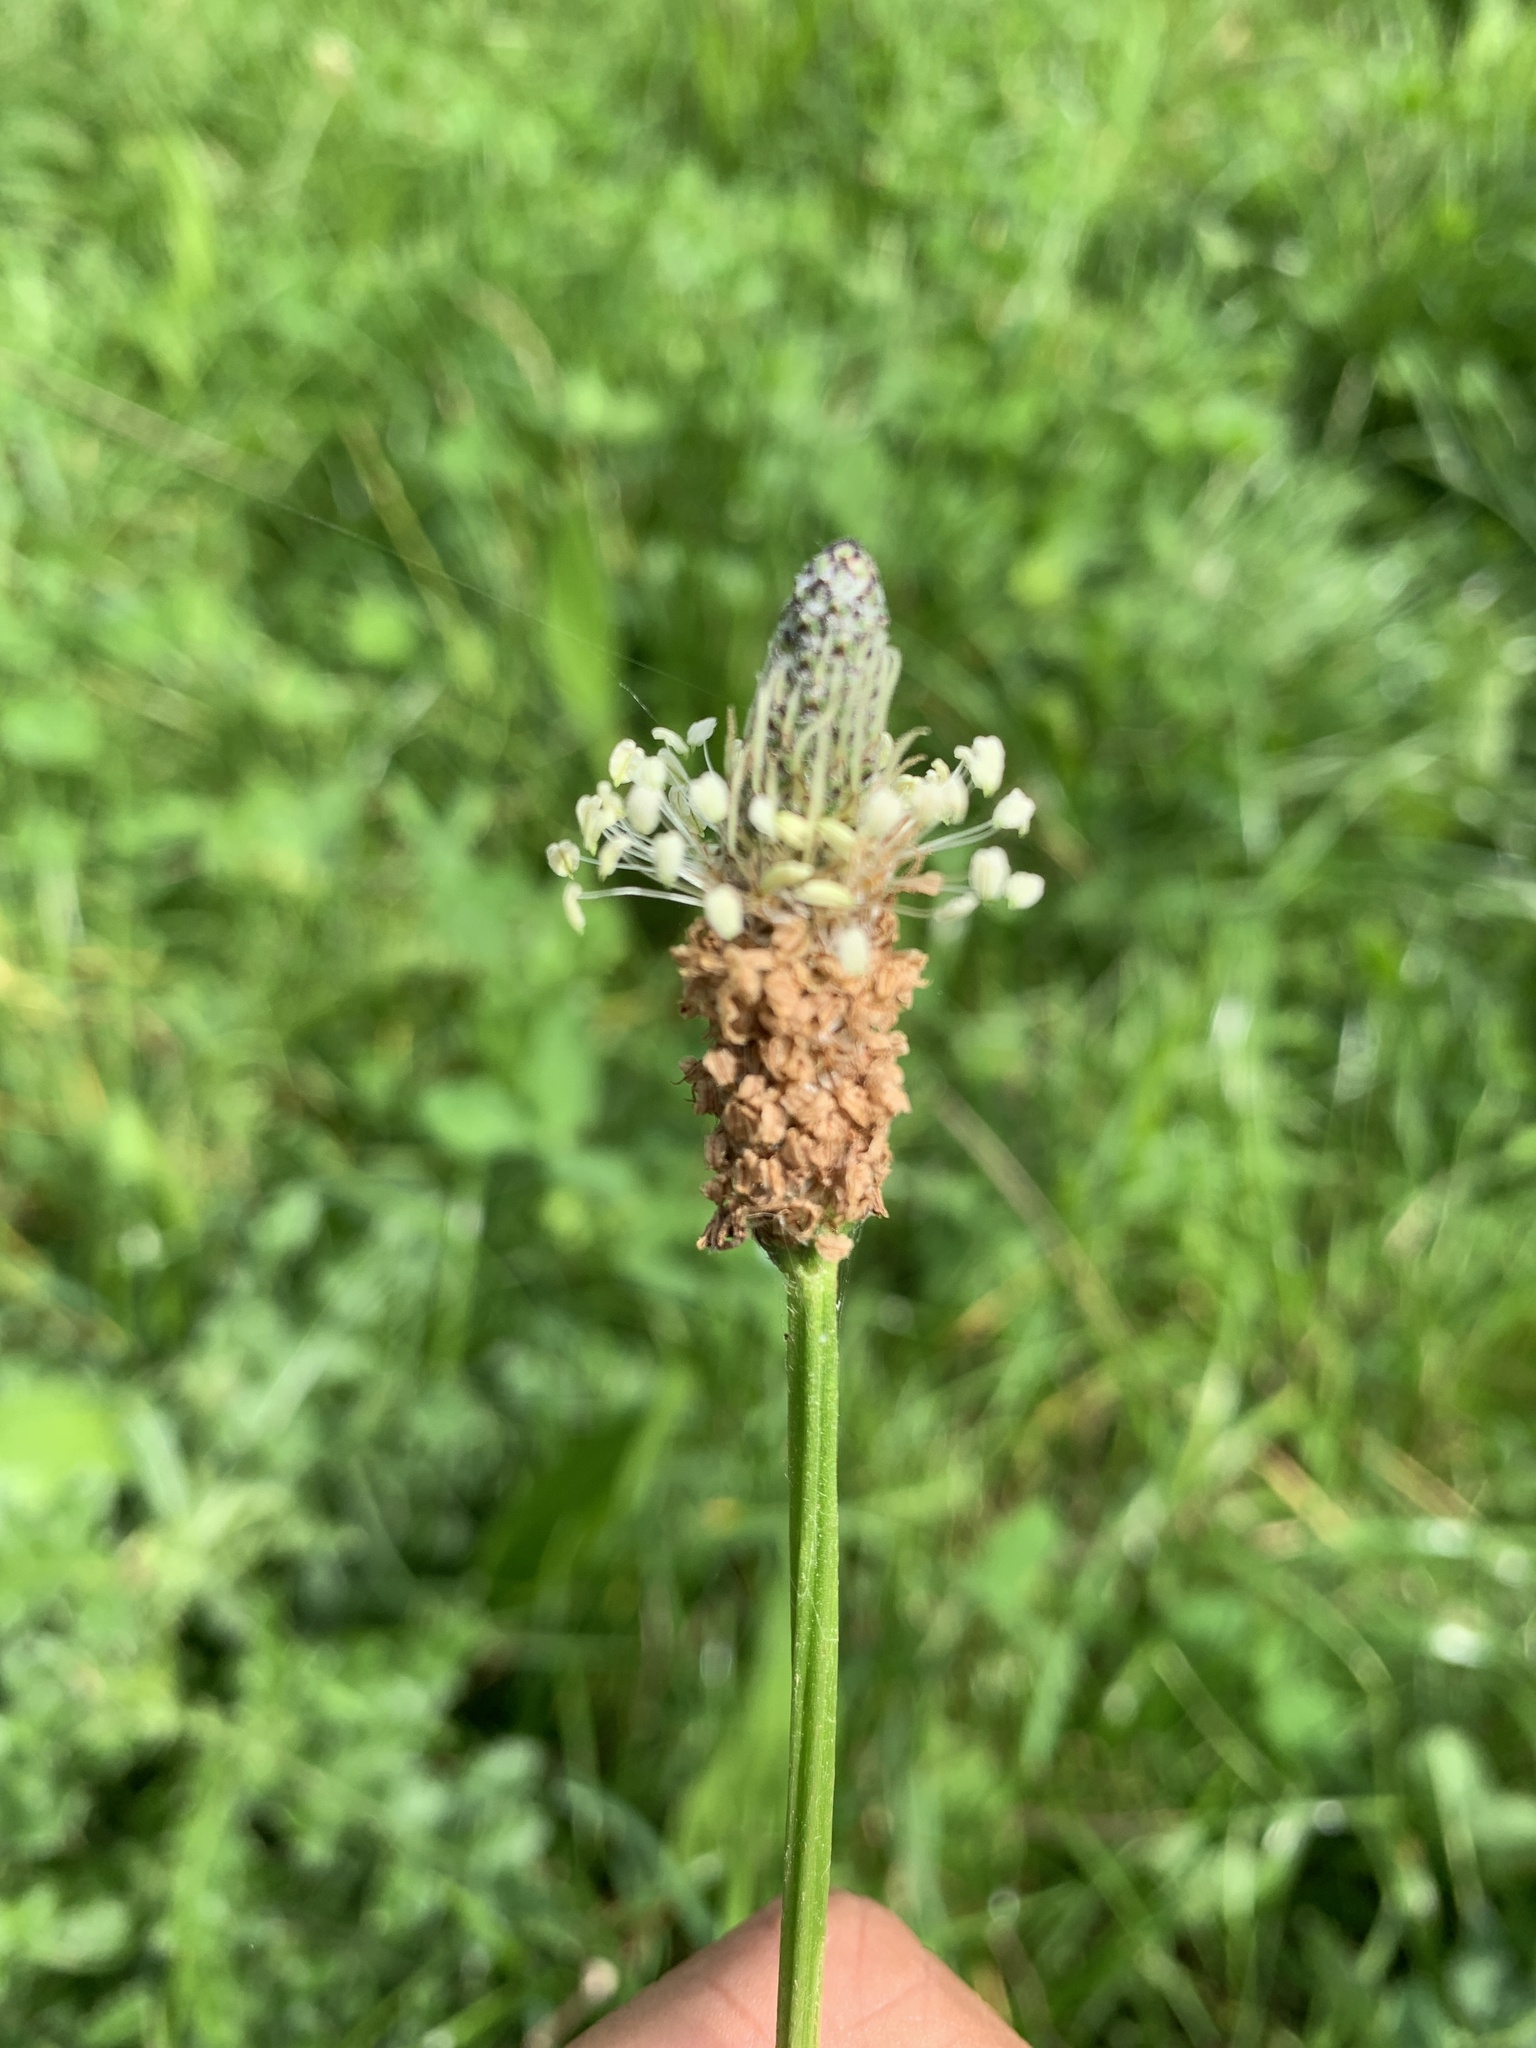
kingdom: Plantae
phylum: Tracheophyta
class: Magnoliopsida
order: Lamiales
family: Plantaginaceae
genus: Plantago
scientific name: Plantago lanceolata
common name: Ribwort plantain
